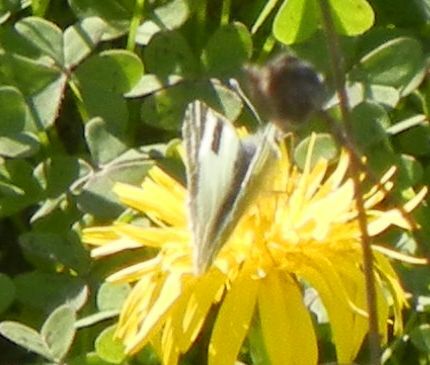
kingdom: Animalia
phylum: Arthropoda
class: Insecta
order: Lepidoptera
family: Pieridae
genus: Euchloe
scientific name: Euchloe belemia
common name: Green-striped white
